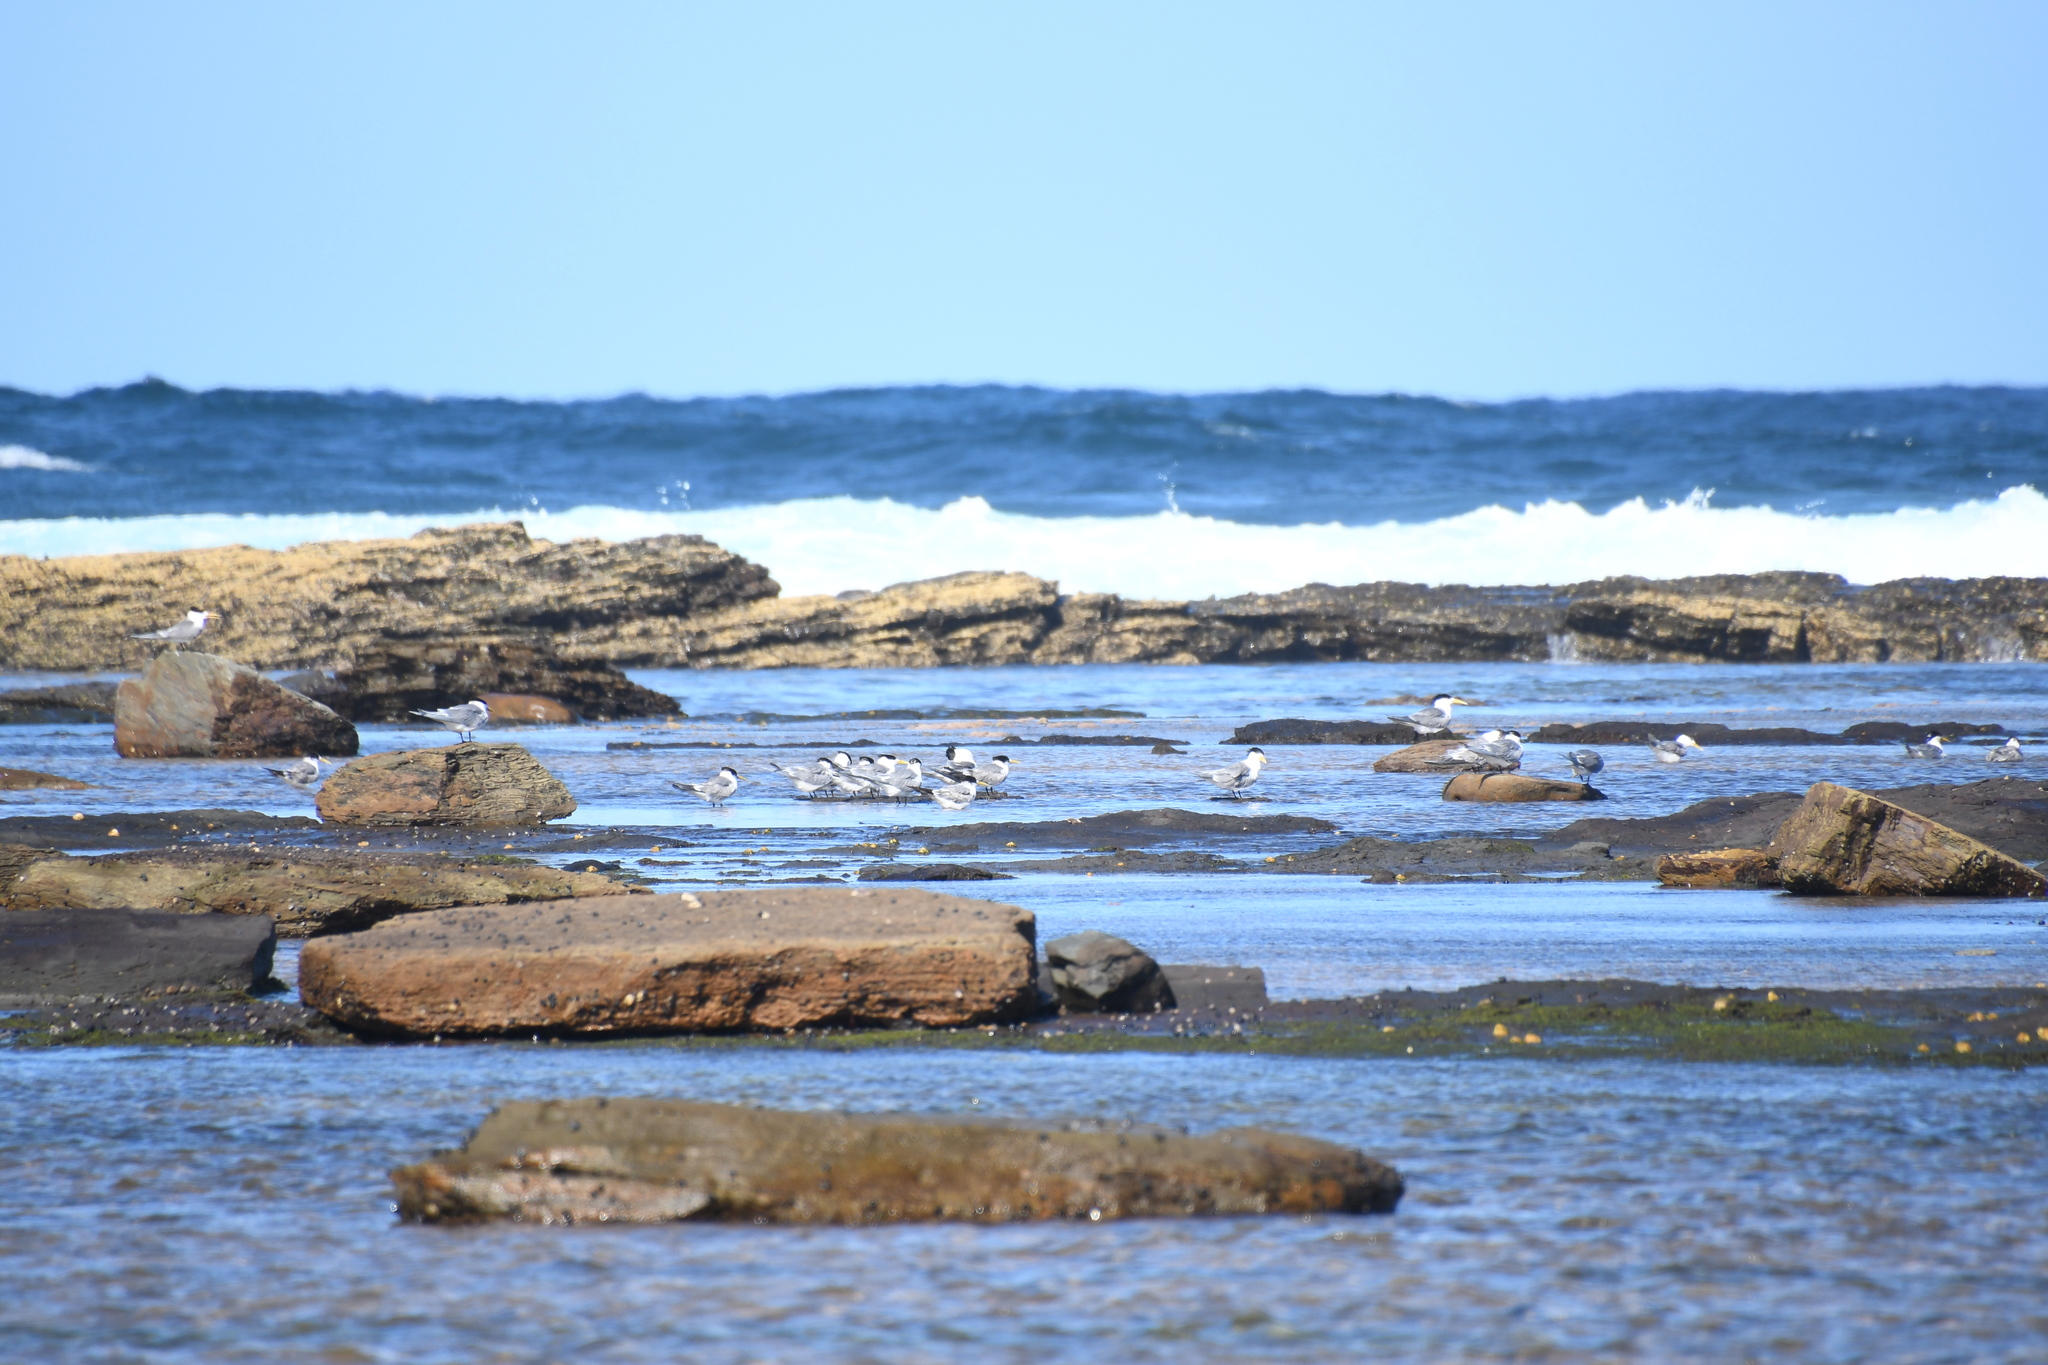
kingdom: Animalia
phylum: Chordata
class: Aves
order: Charadriiformes
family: Laridae
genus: Thalasseus
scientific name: Thalasseus bergii
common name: Greater crested tern
